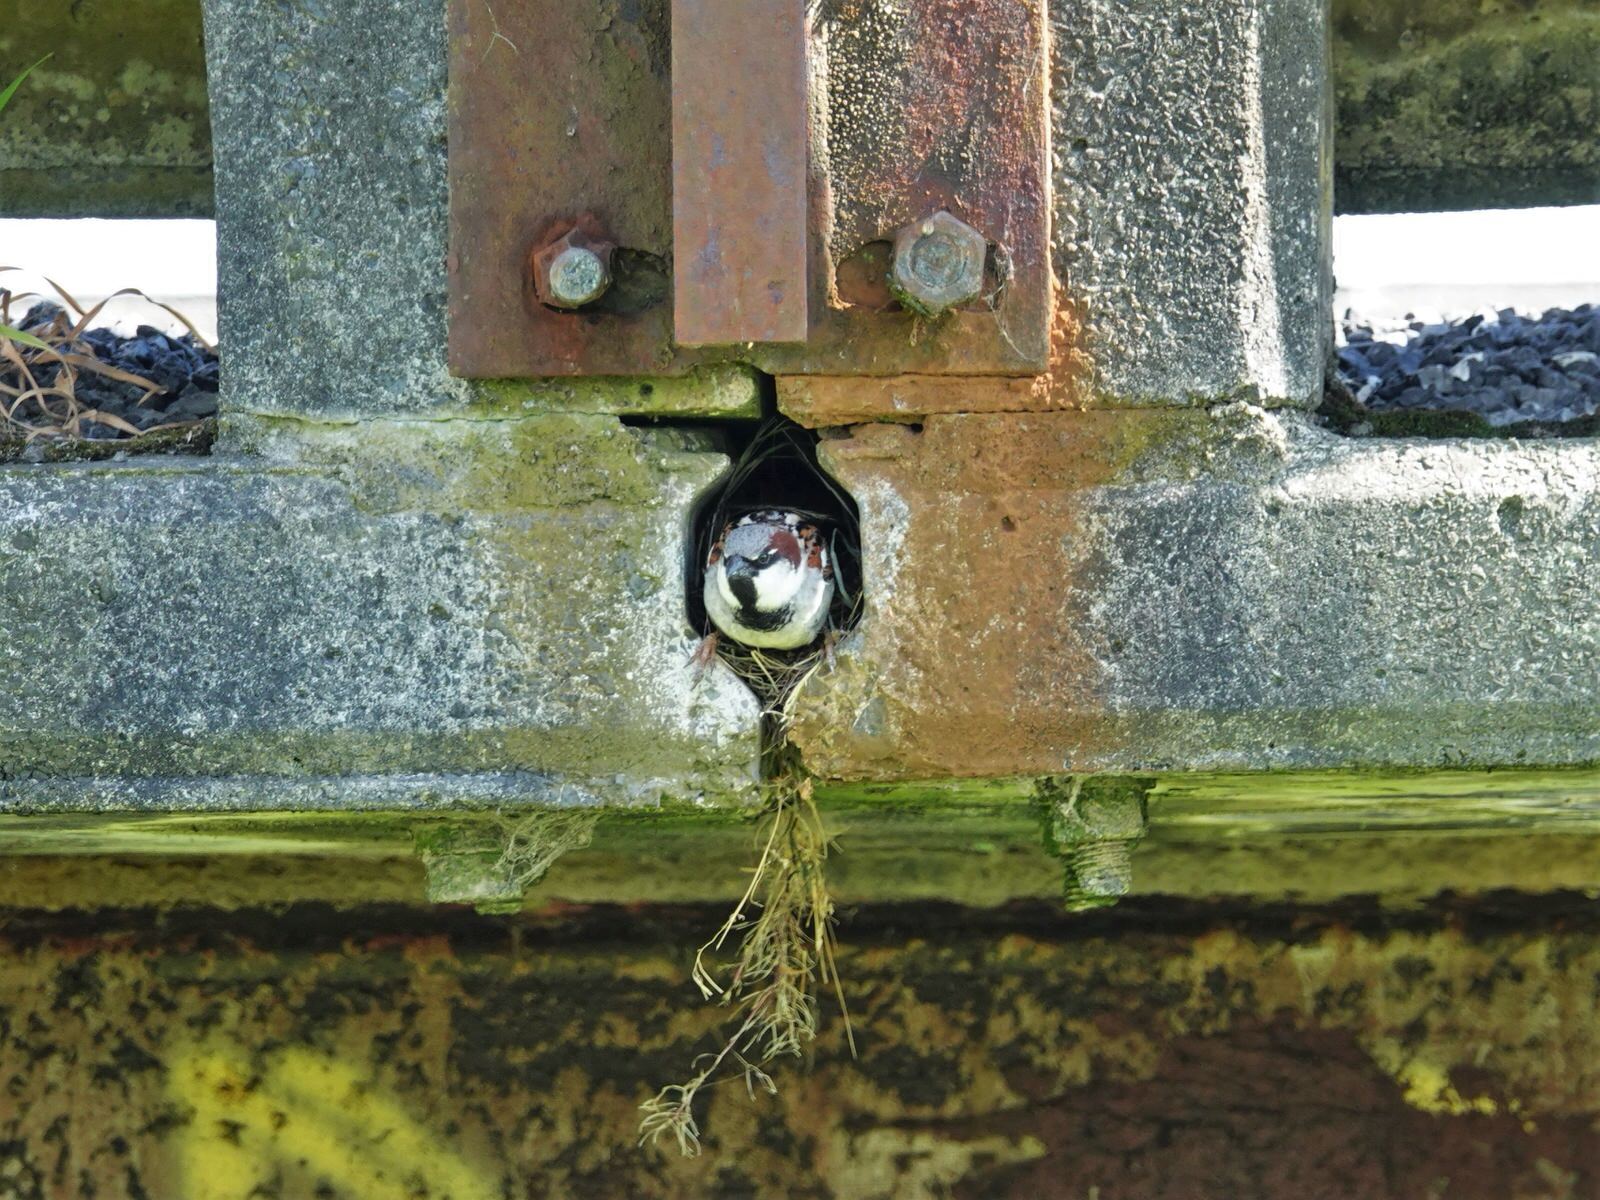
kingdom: Animalia
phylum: Chordata
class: Aves
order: Passeriformes
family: Passeridae
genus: Passer
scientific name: Passer domesticus
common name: House sparrow
